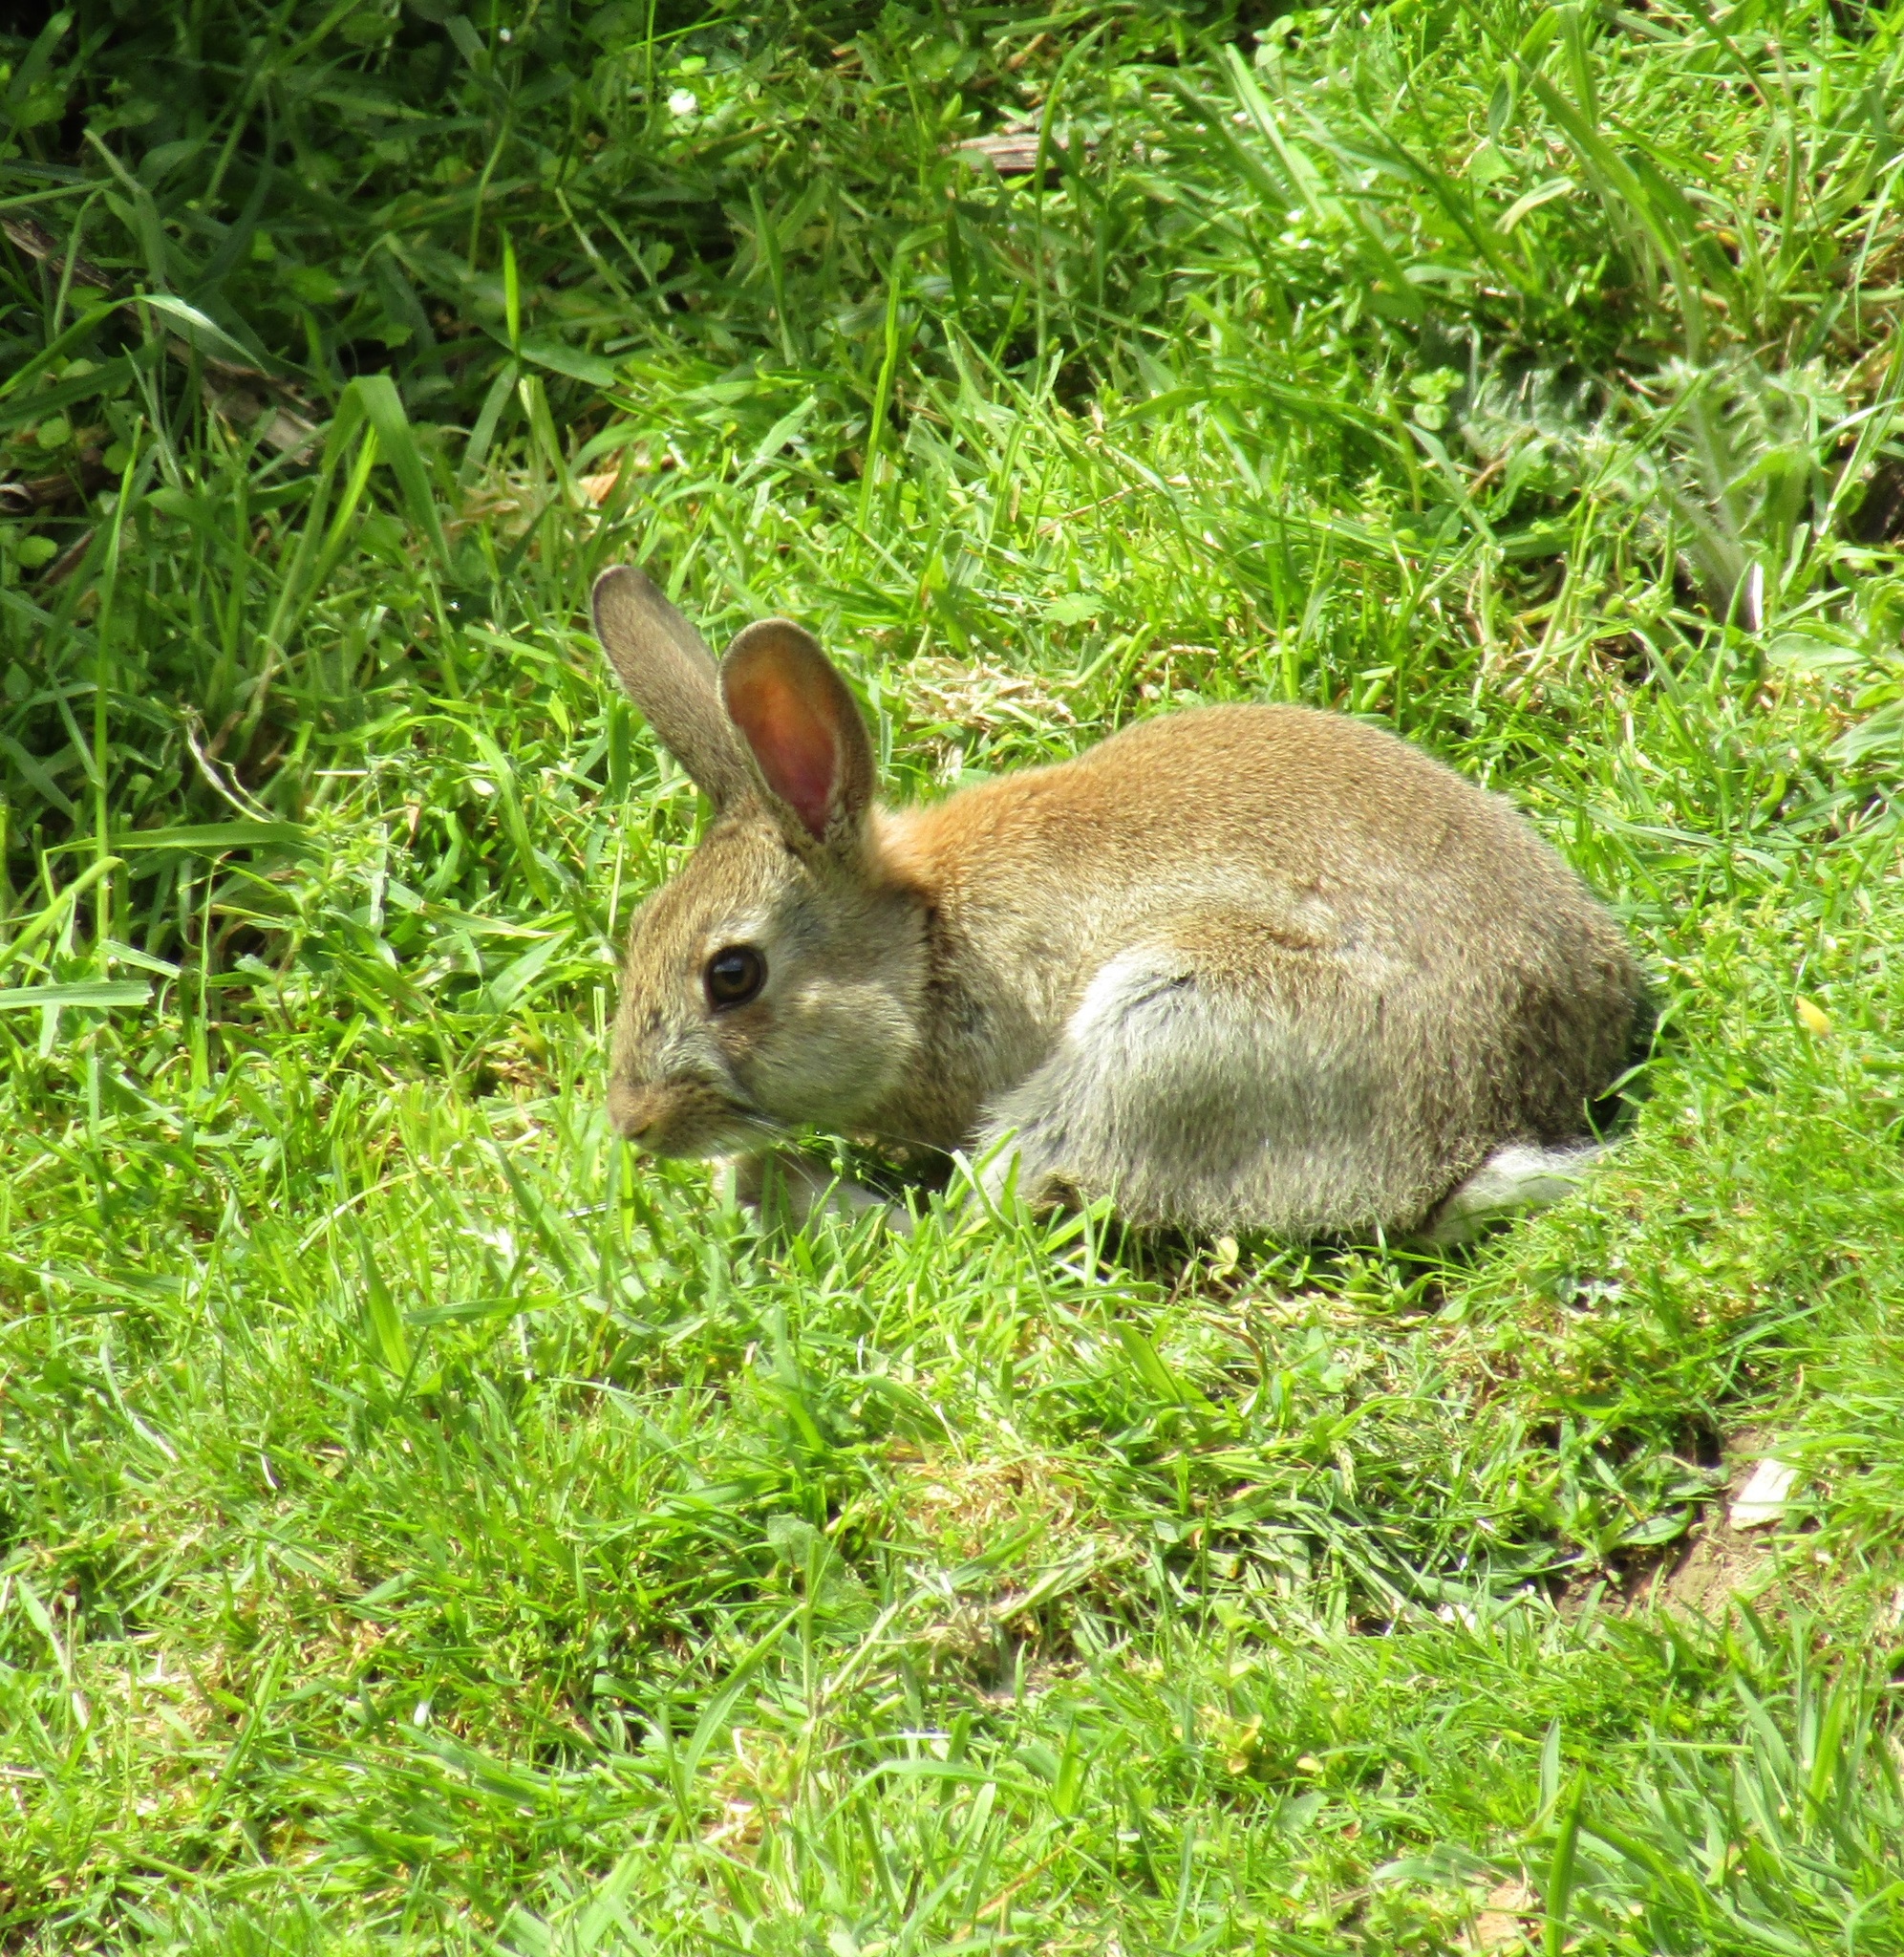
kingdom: Animalia
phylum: Chordata
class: Mammalia
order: Lagomorpha
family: Leporidae
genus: Oryctolagus
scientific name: Oryctolagus cuniculus
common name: European rabbit
